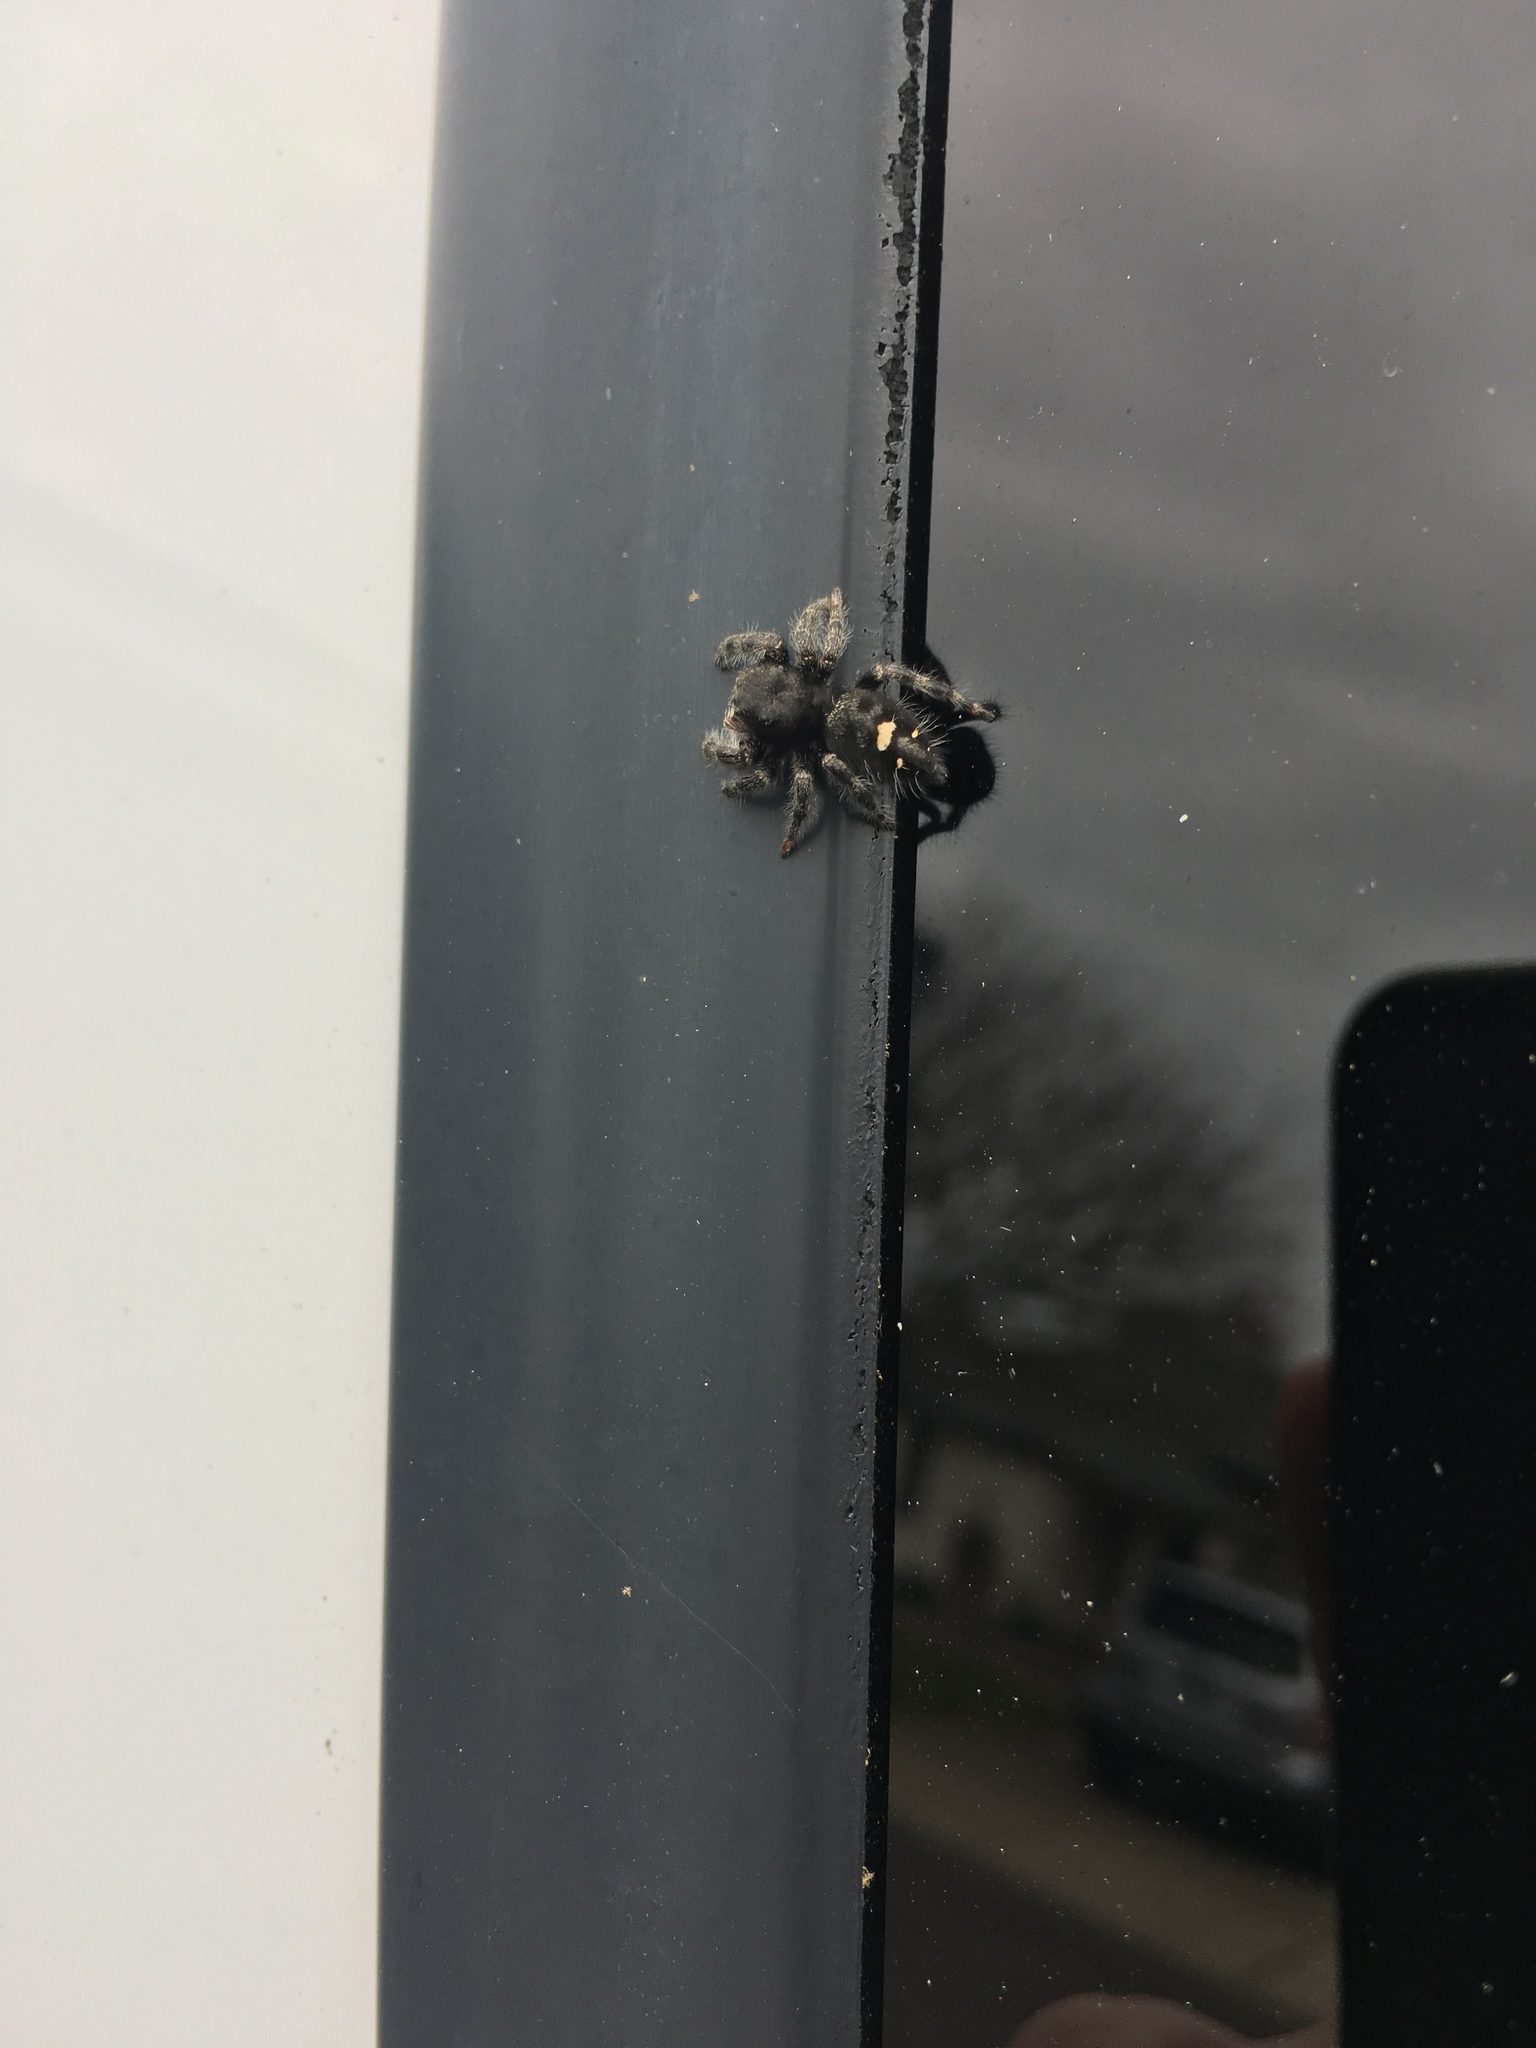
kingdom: Animalia
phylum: Arthropoda
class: Arachnida
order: Araneae
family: Salticidae
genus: Phidippus
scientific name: Phidippus audax
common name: Bold jumper
